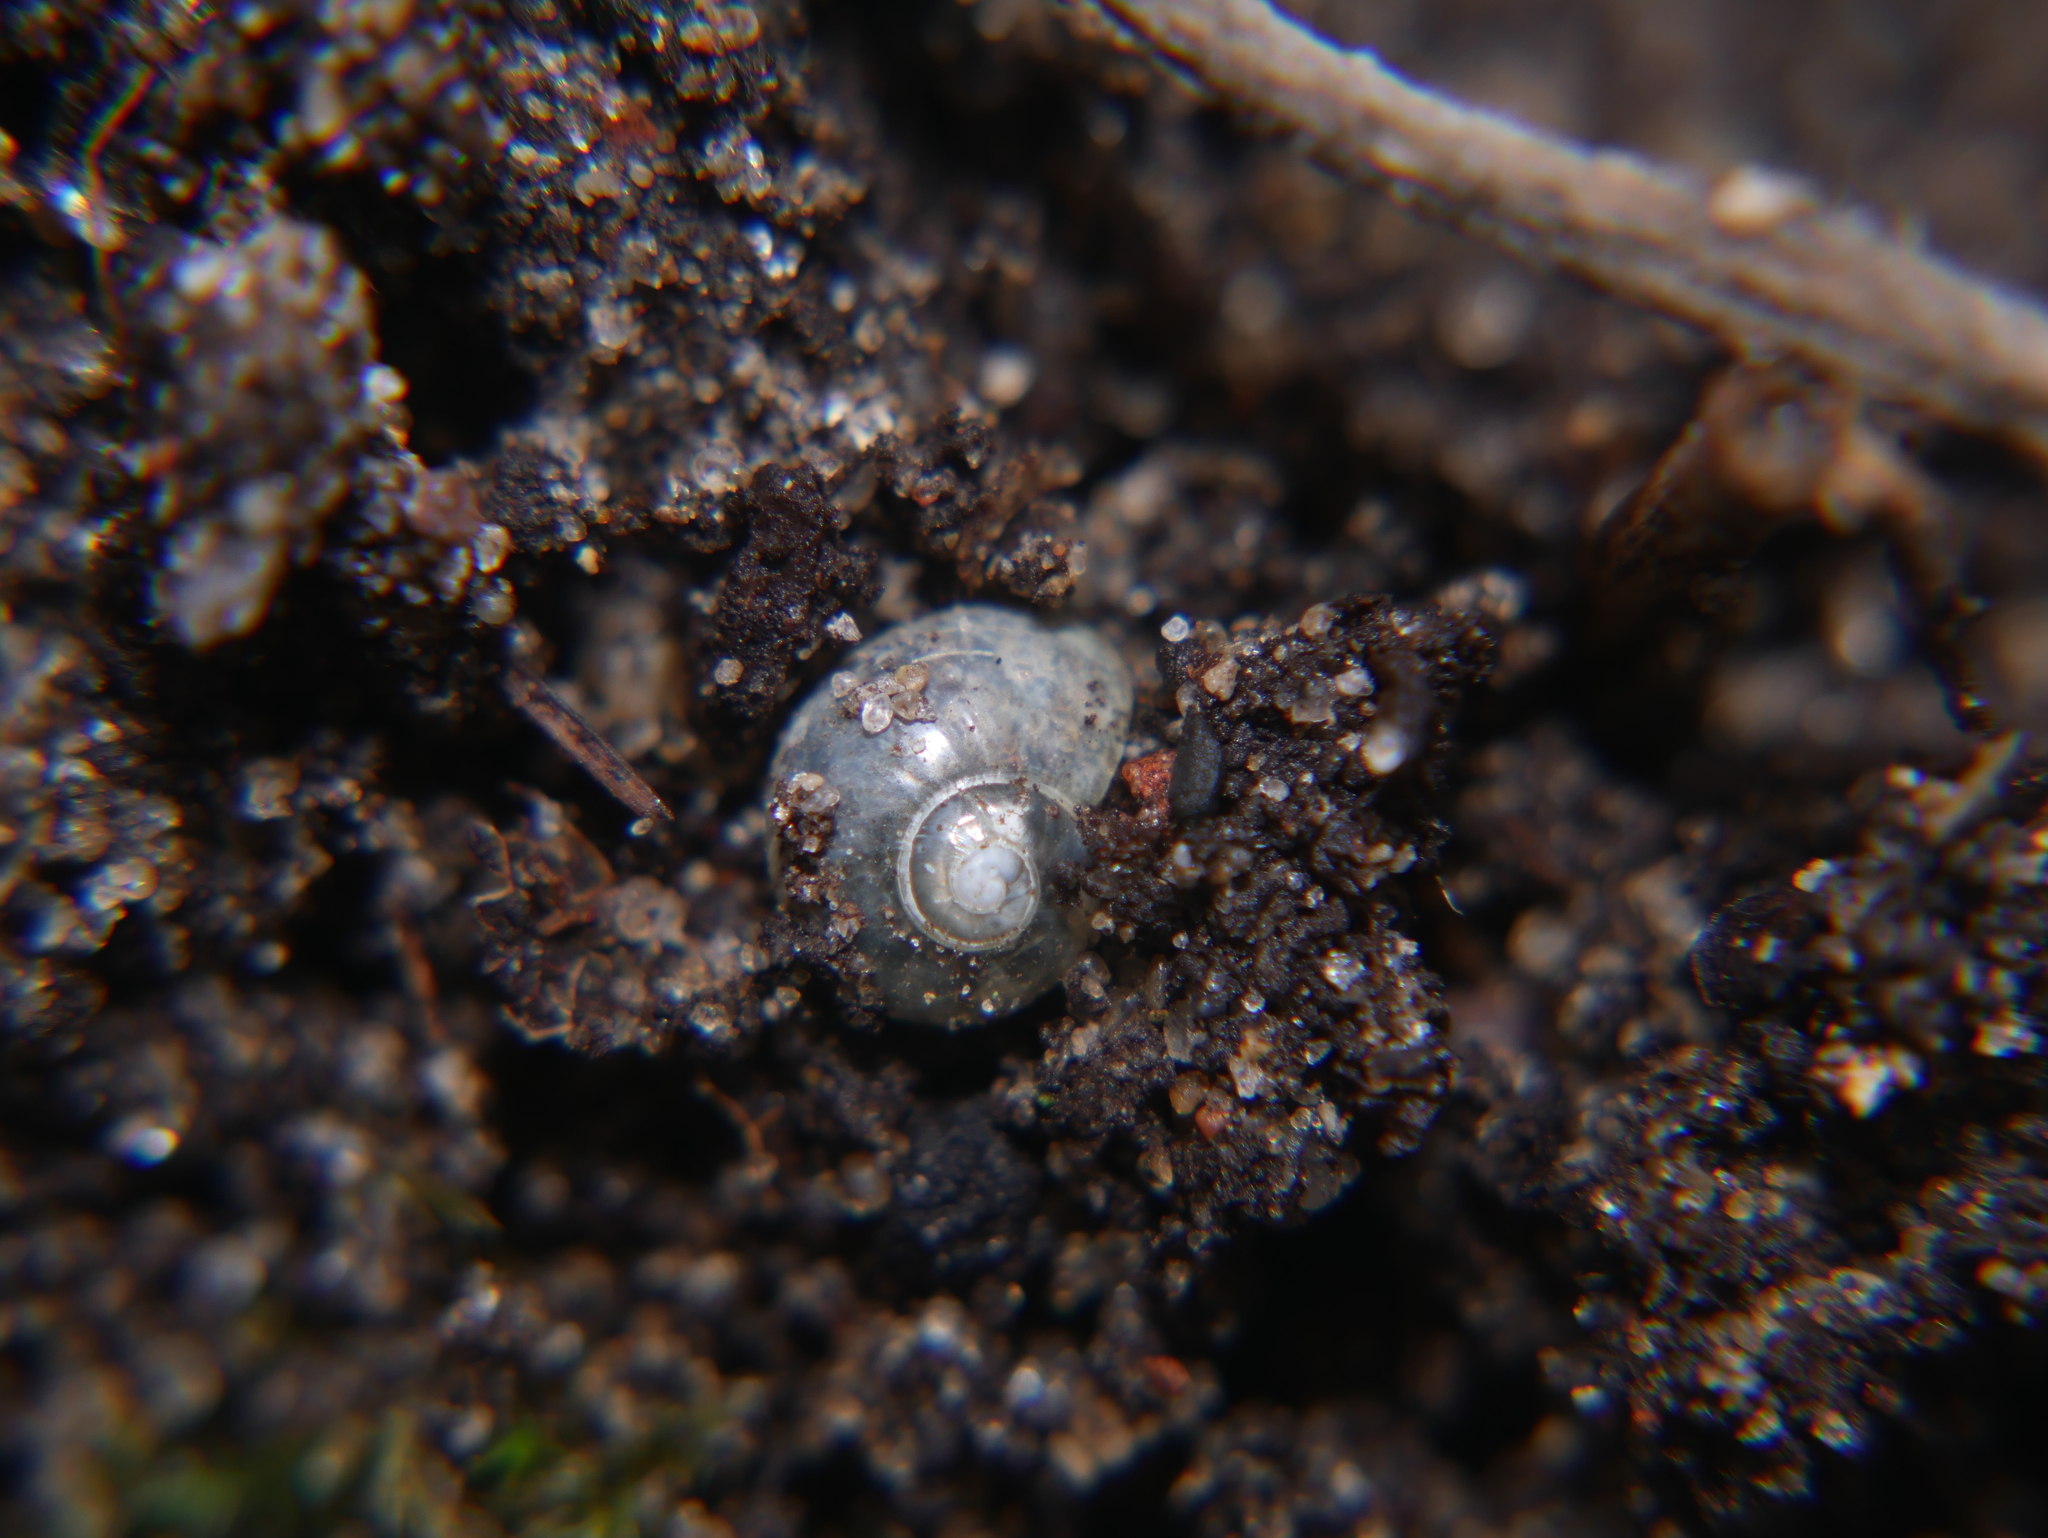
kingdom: Animalia
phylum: Mollusca
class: Gastropoda
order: Stylommatophora
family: Vitrinidae
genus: Vitrina
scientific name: Vitrina pellucida
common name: Pellucid glass snail
